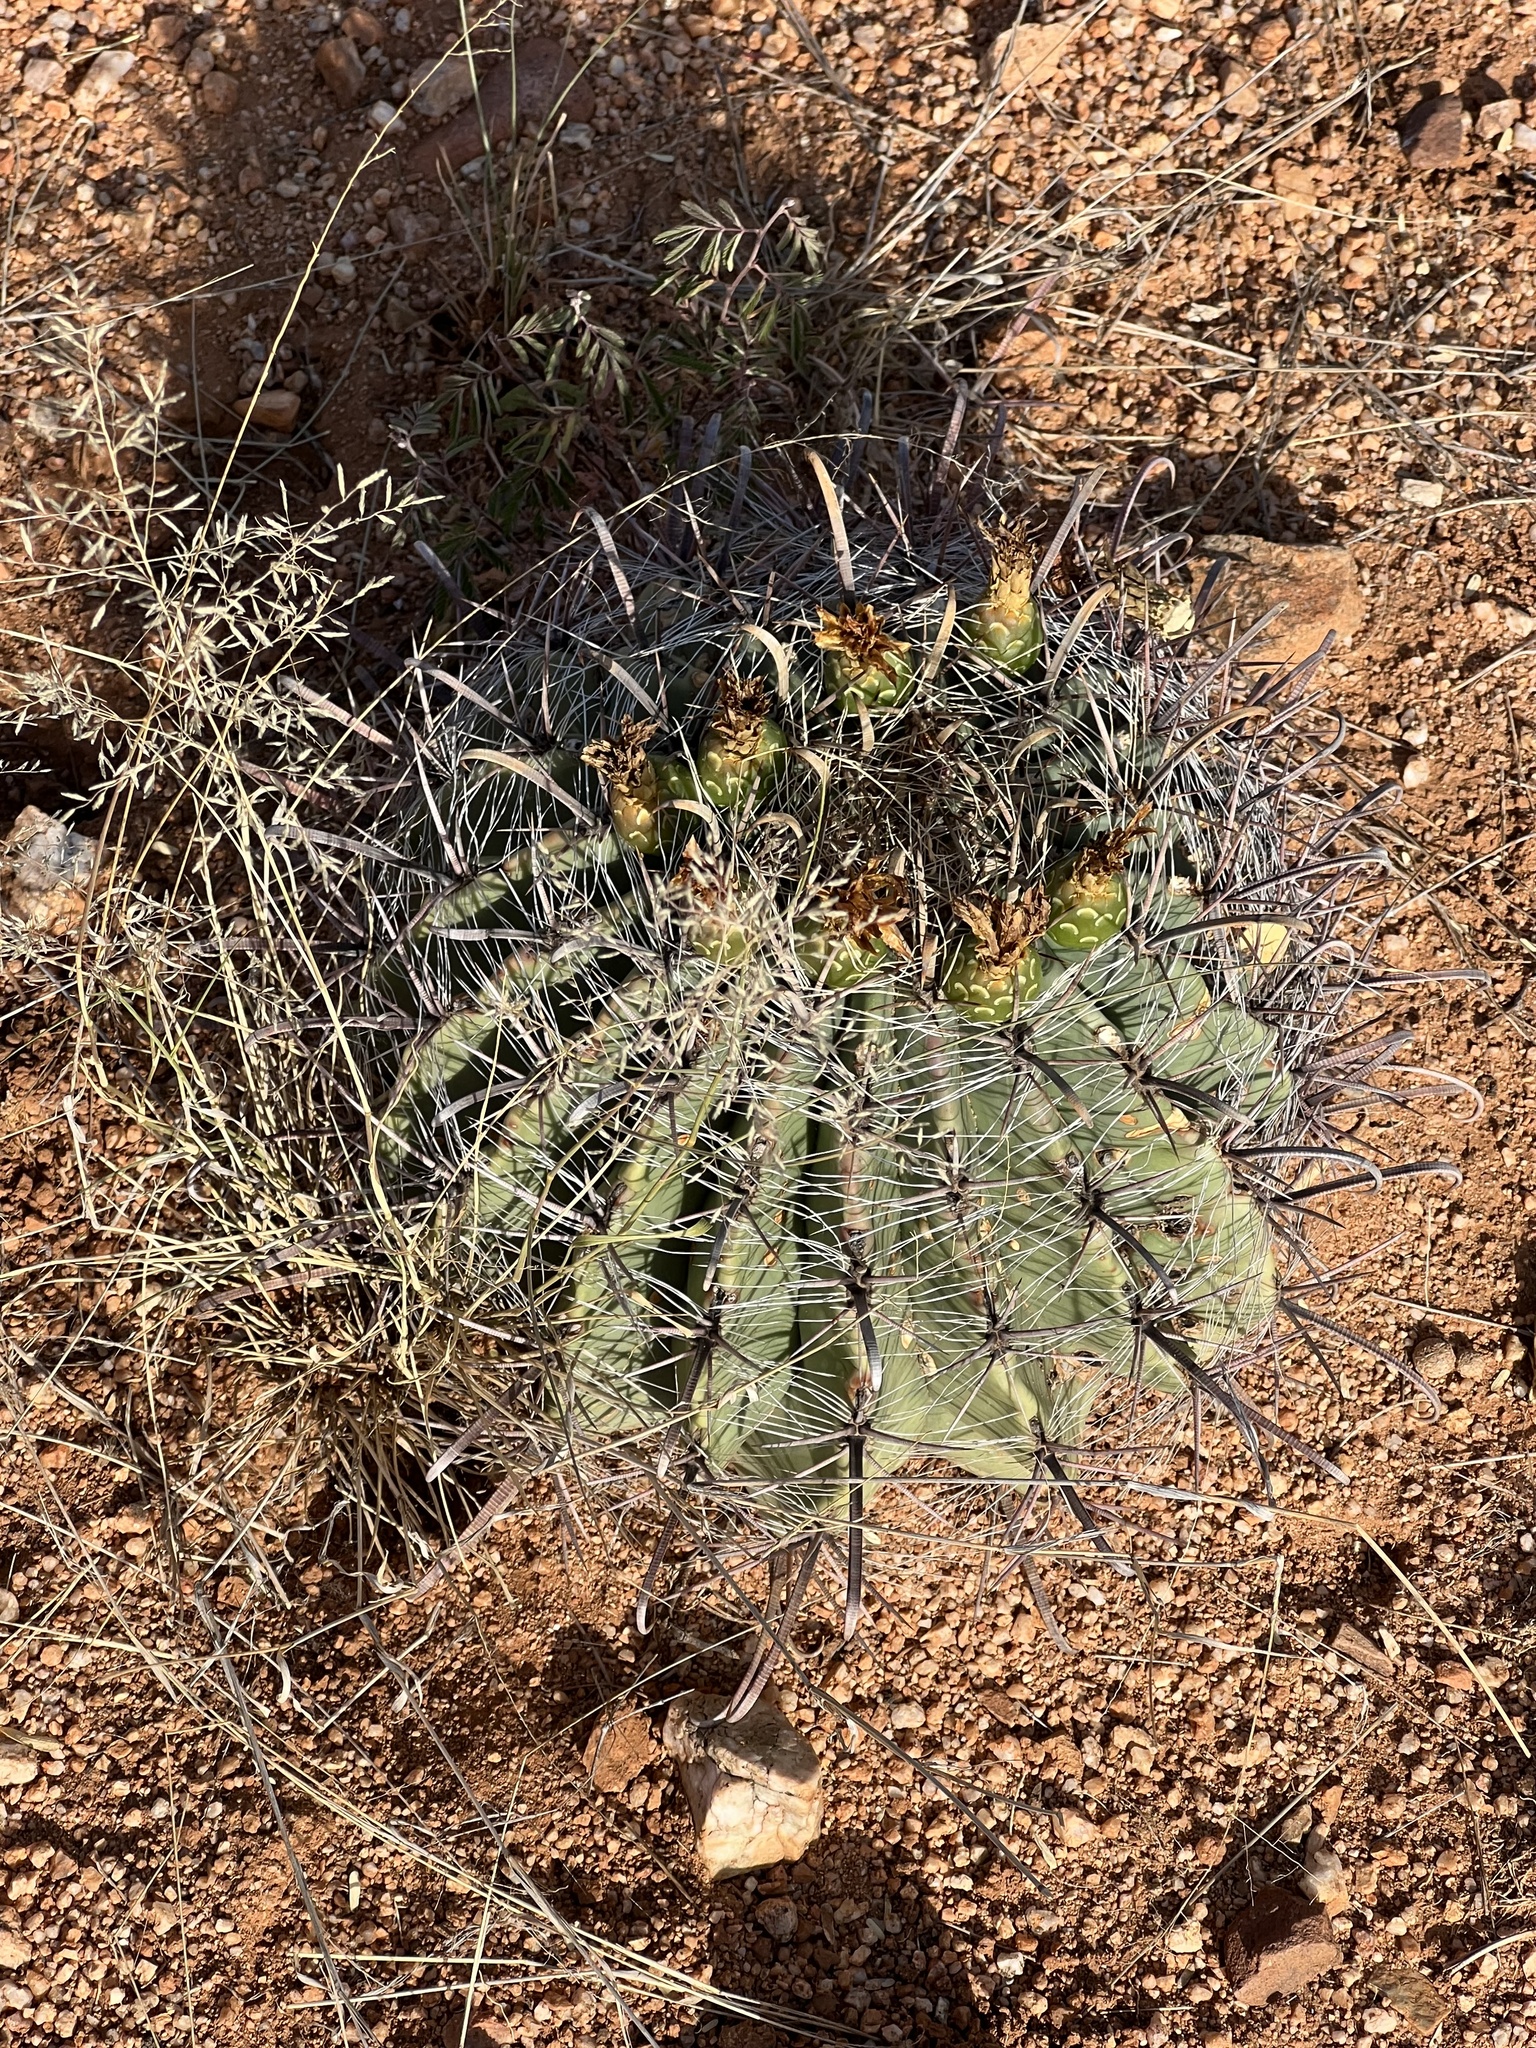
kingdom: Plantae
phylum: Tracheophyta
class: Magnoliopsida
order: Caryophyllales
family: Cactaceae
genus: Ferocactus
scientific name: Ferocactus wislizeni
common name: Candy barrel cactus
